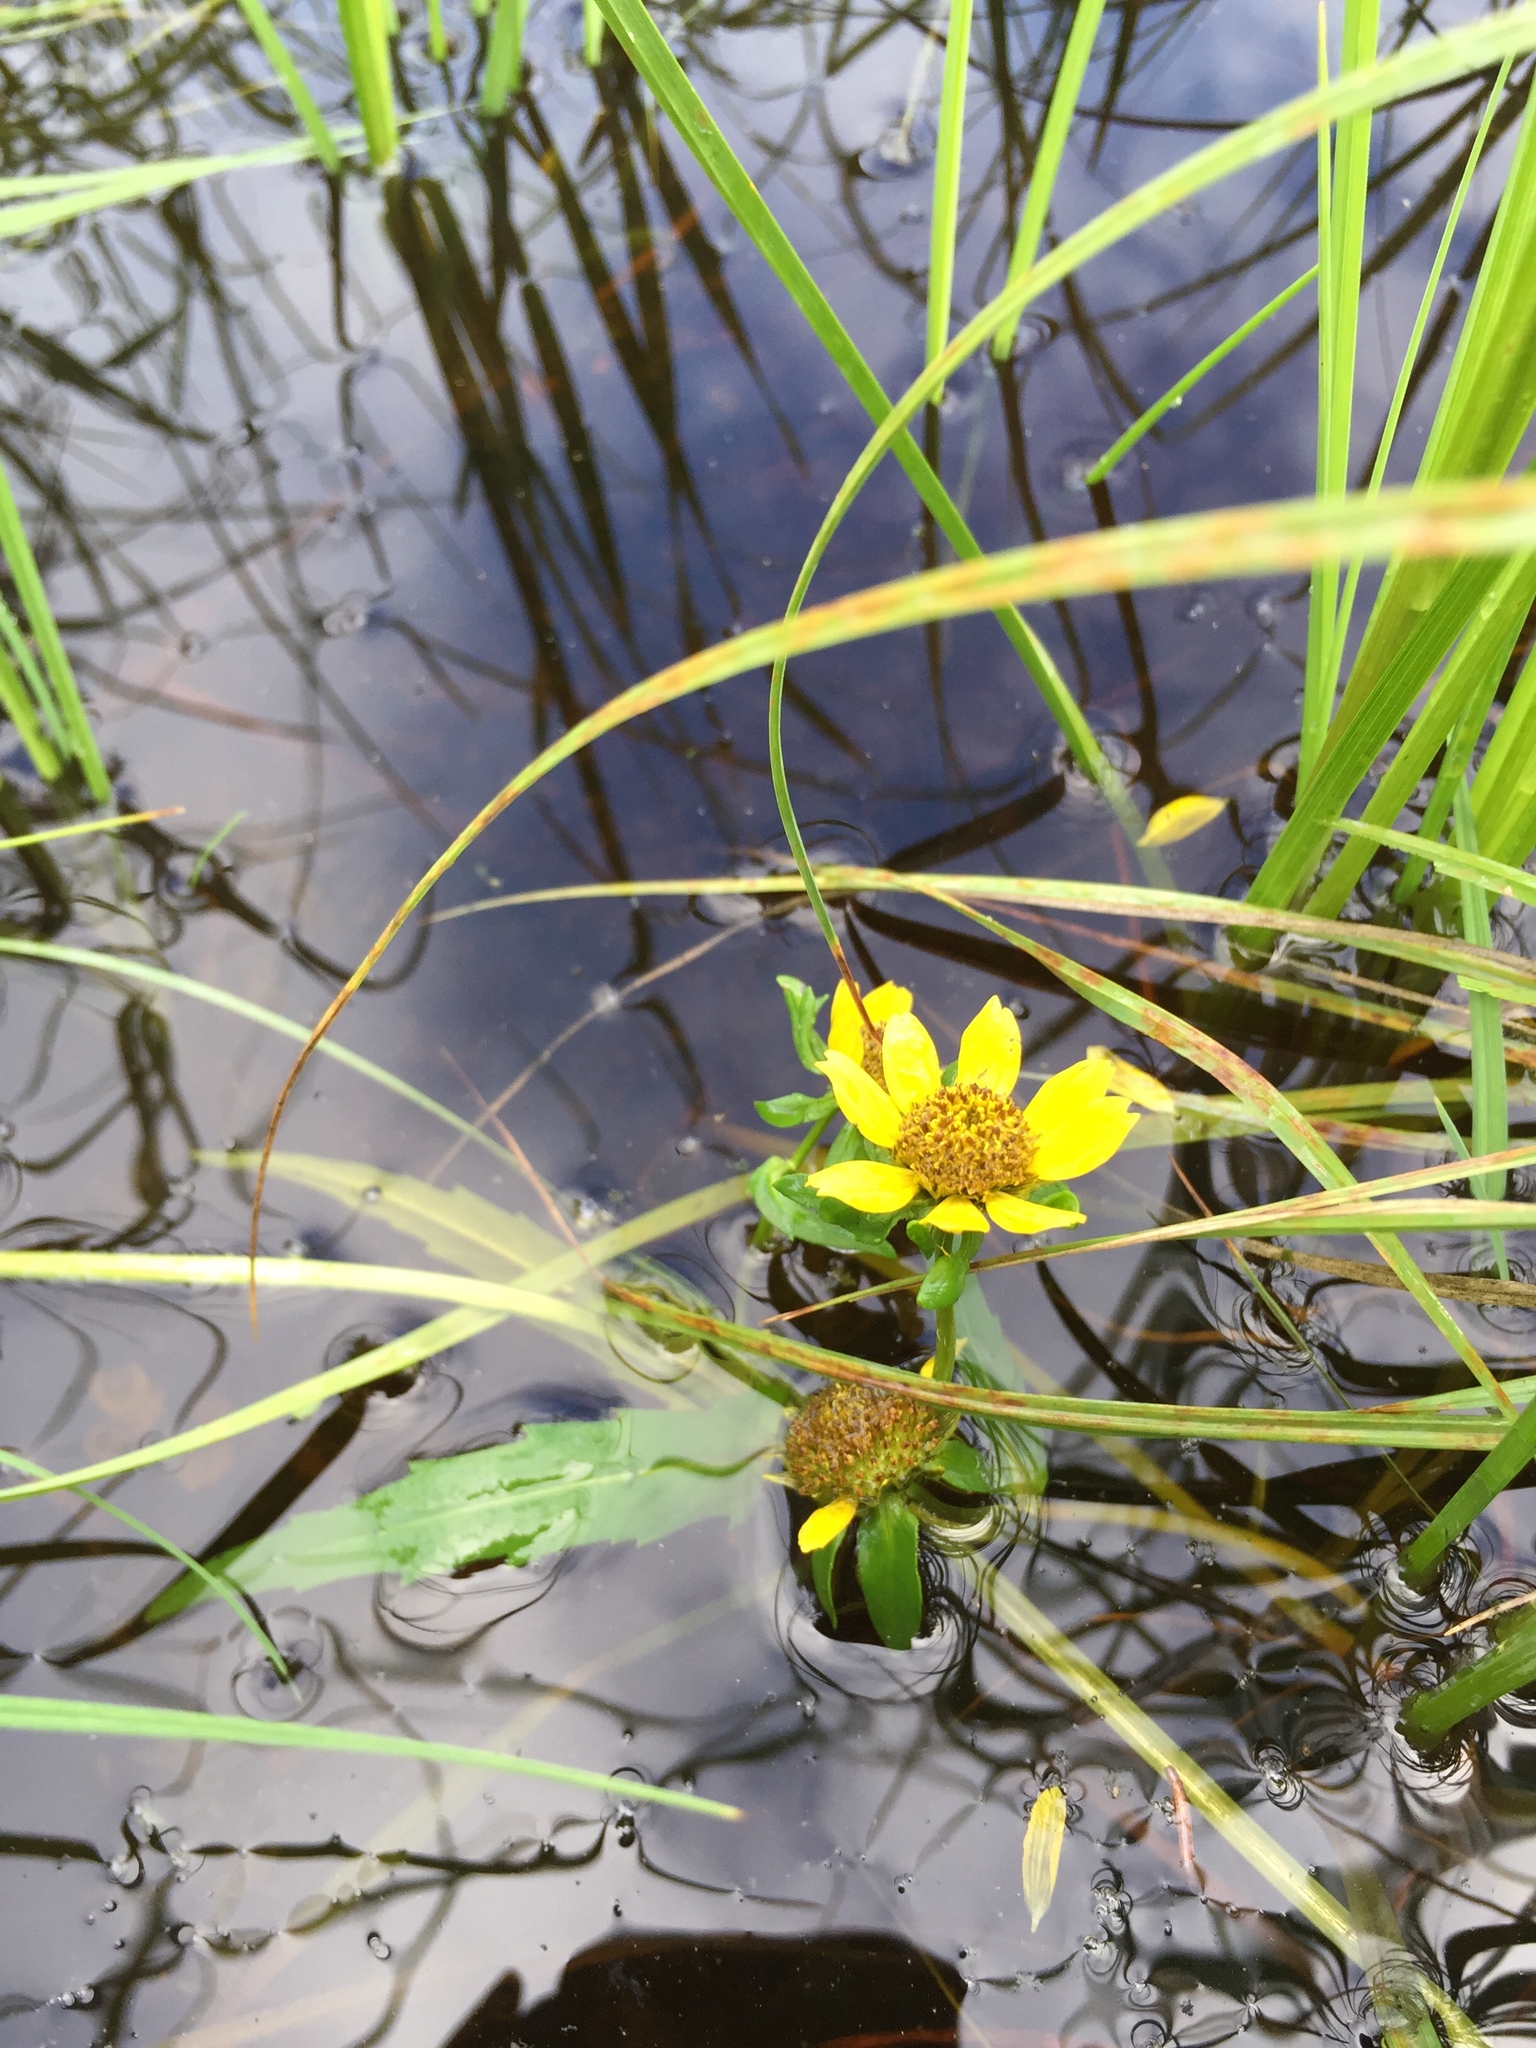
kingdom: Plantae
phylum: Tracheophyta
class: Magnoliopsida
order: Asterales
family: Asteraceae
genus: Bidens
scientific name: Bidens cernua
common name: Nodding bur-marigold
